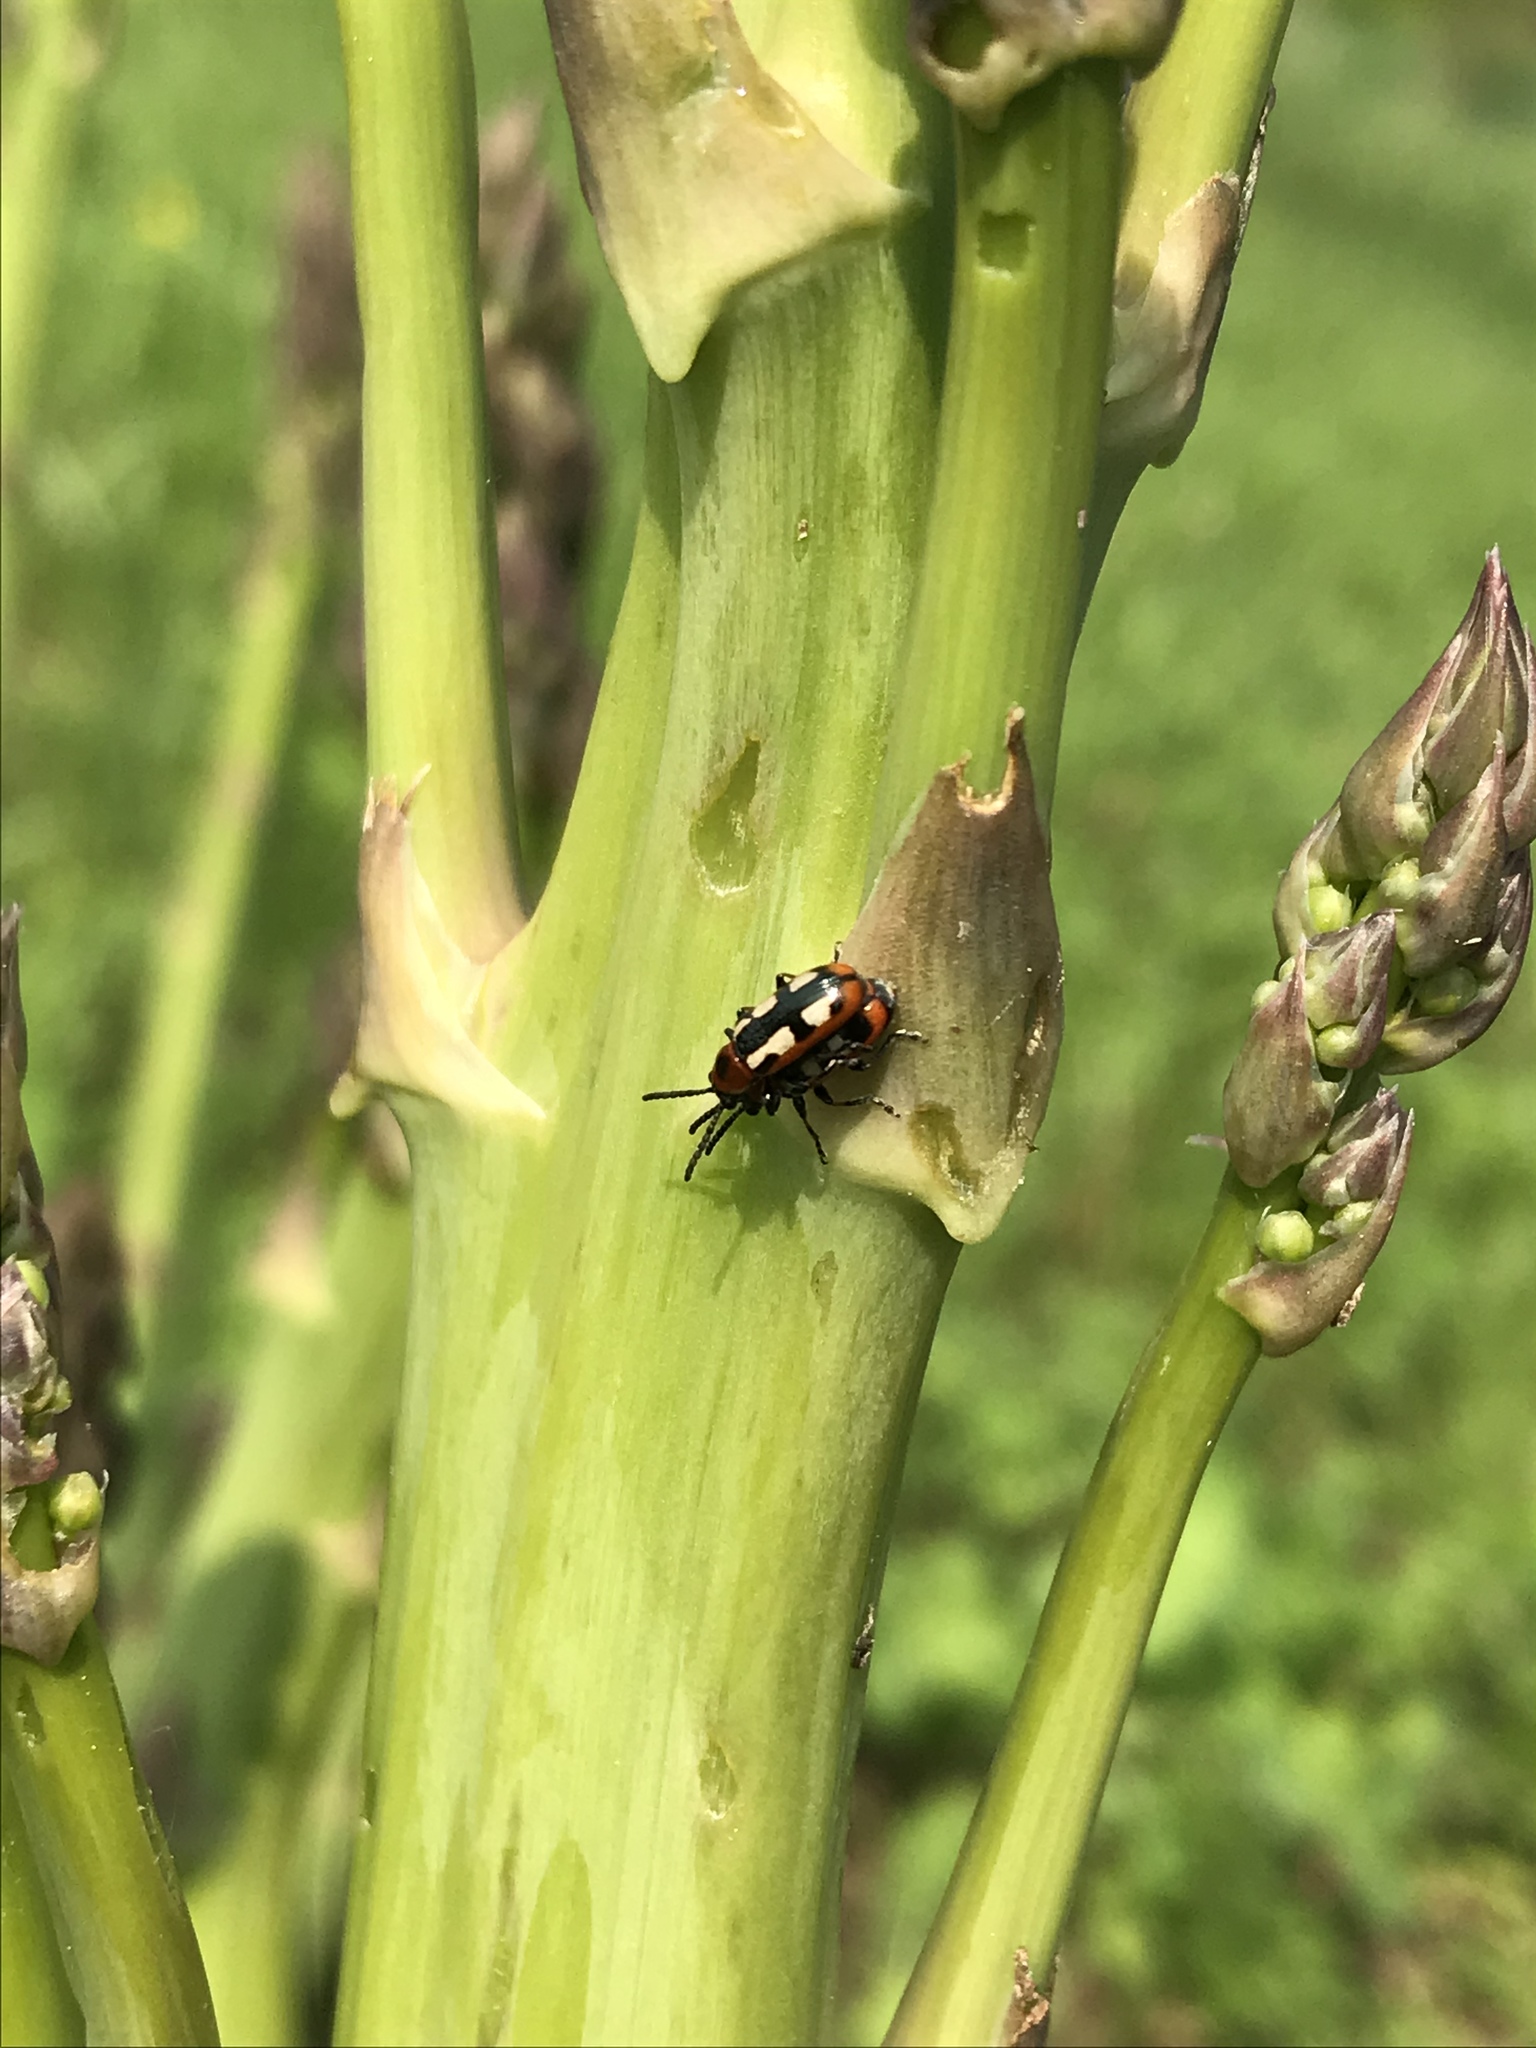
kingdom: Animalia
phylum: Arthropoda
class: Insecta
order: Coleoptera
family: Chrysomelidae
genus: Crioceris
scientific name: Crioceris asparagi
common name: Asparagus beetle
